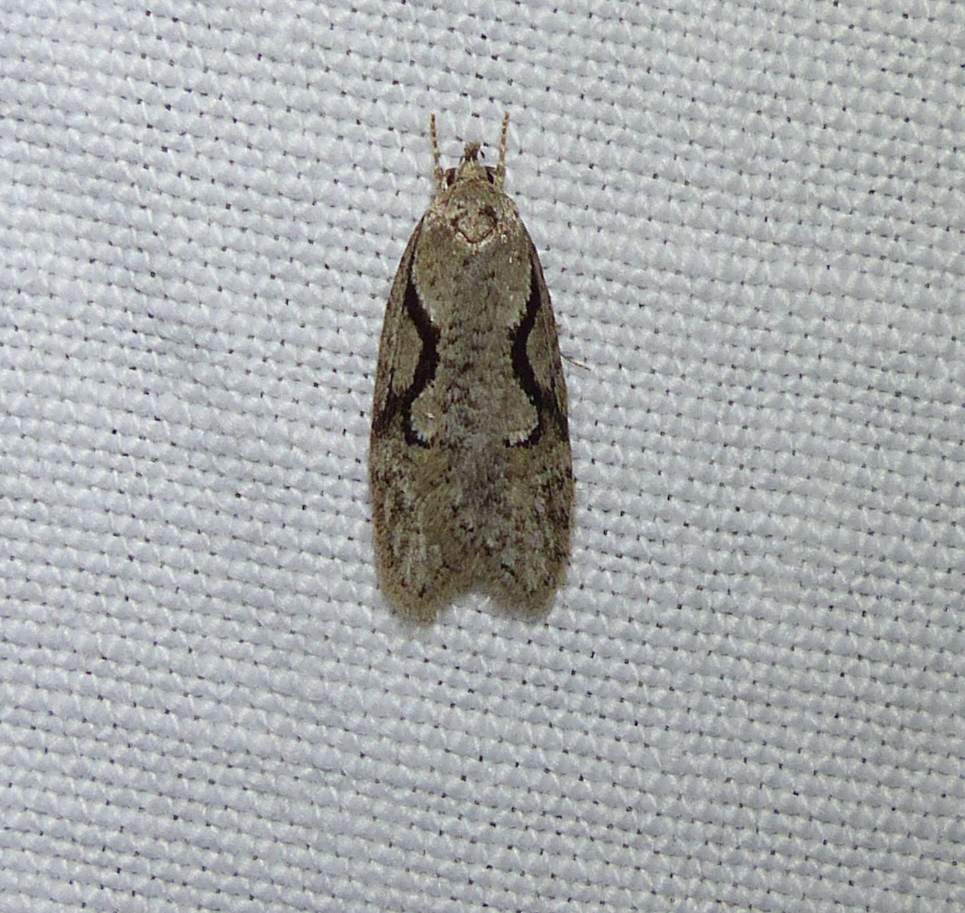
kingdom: Animalia
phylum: Arthropoda
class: Insecta
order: Lepidoptera
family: Depressariidae
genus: Semioscopis
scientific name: Semioscopis packardella
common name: Packard's concealer moth
